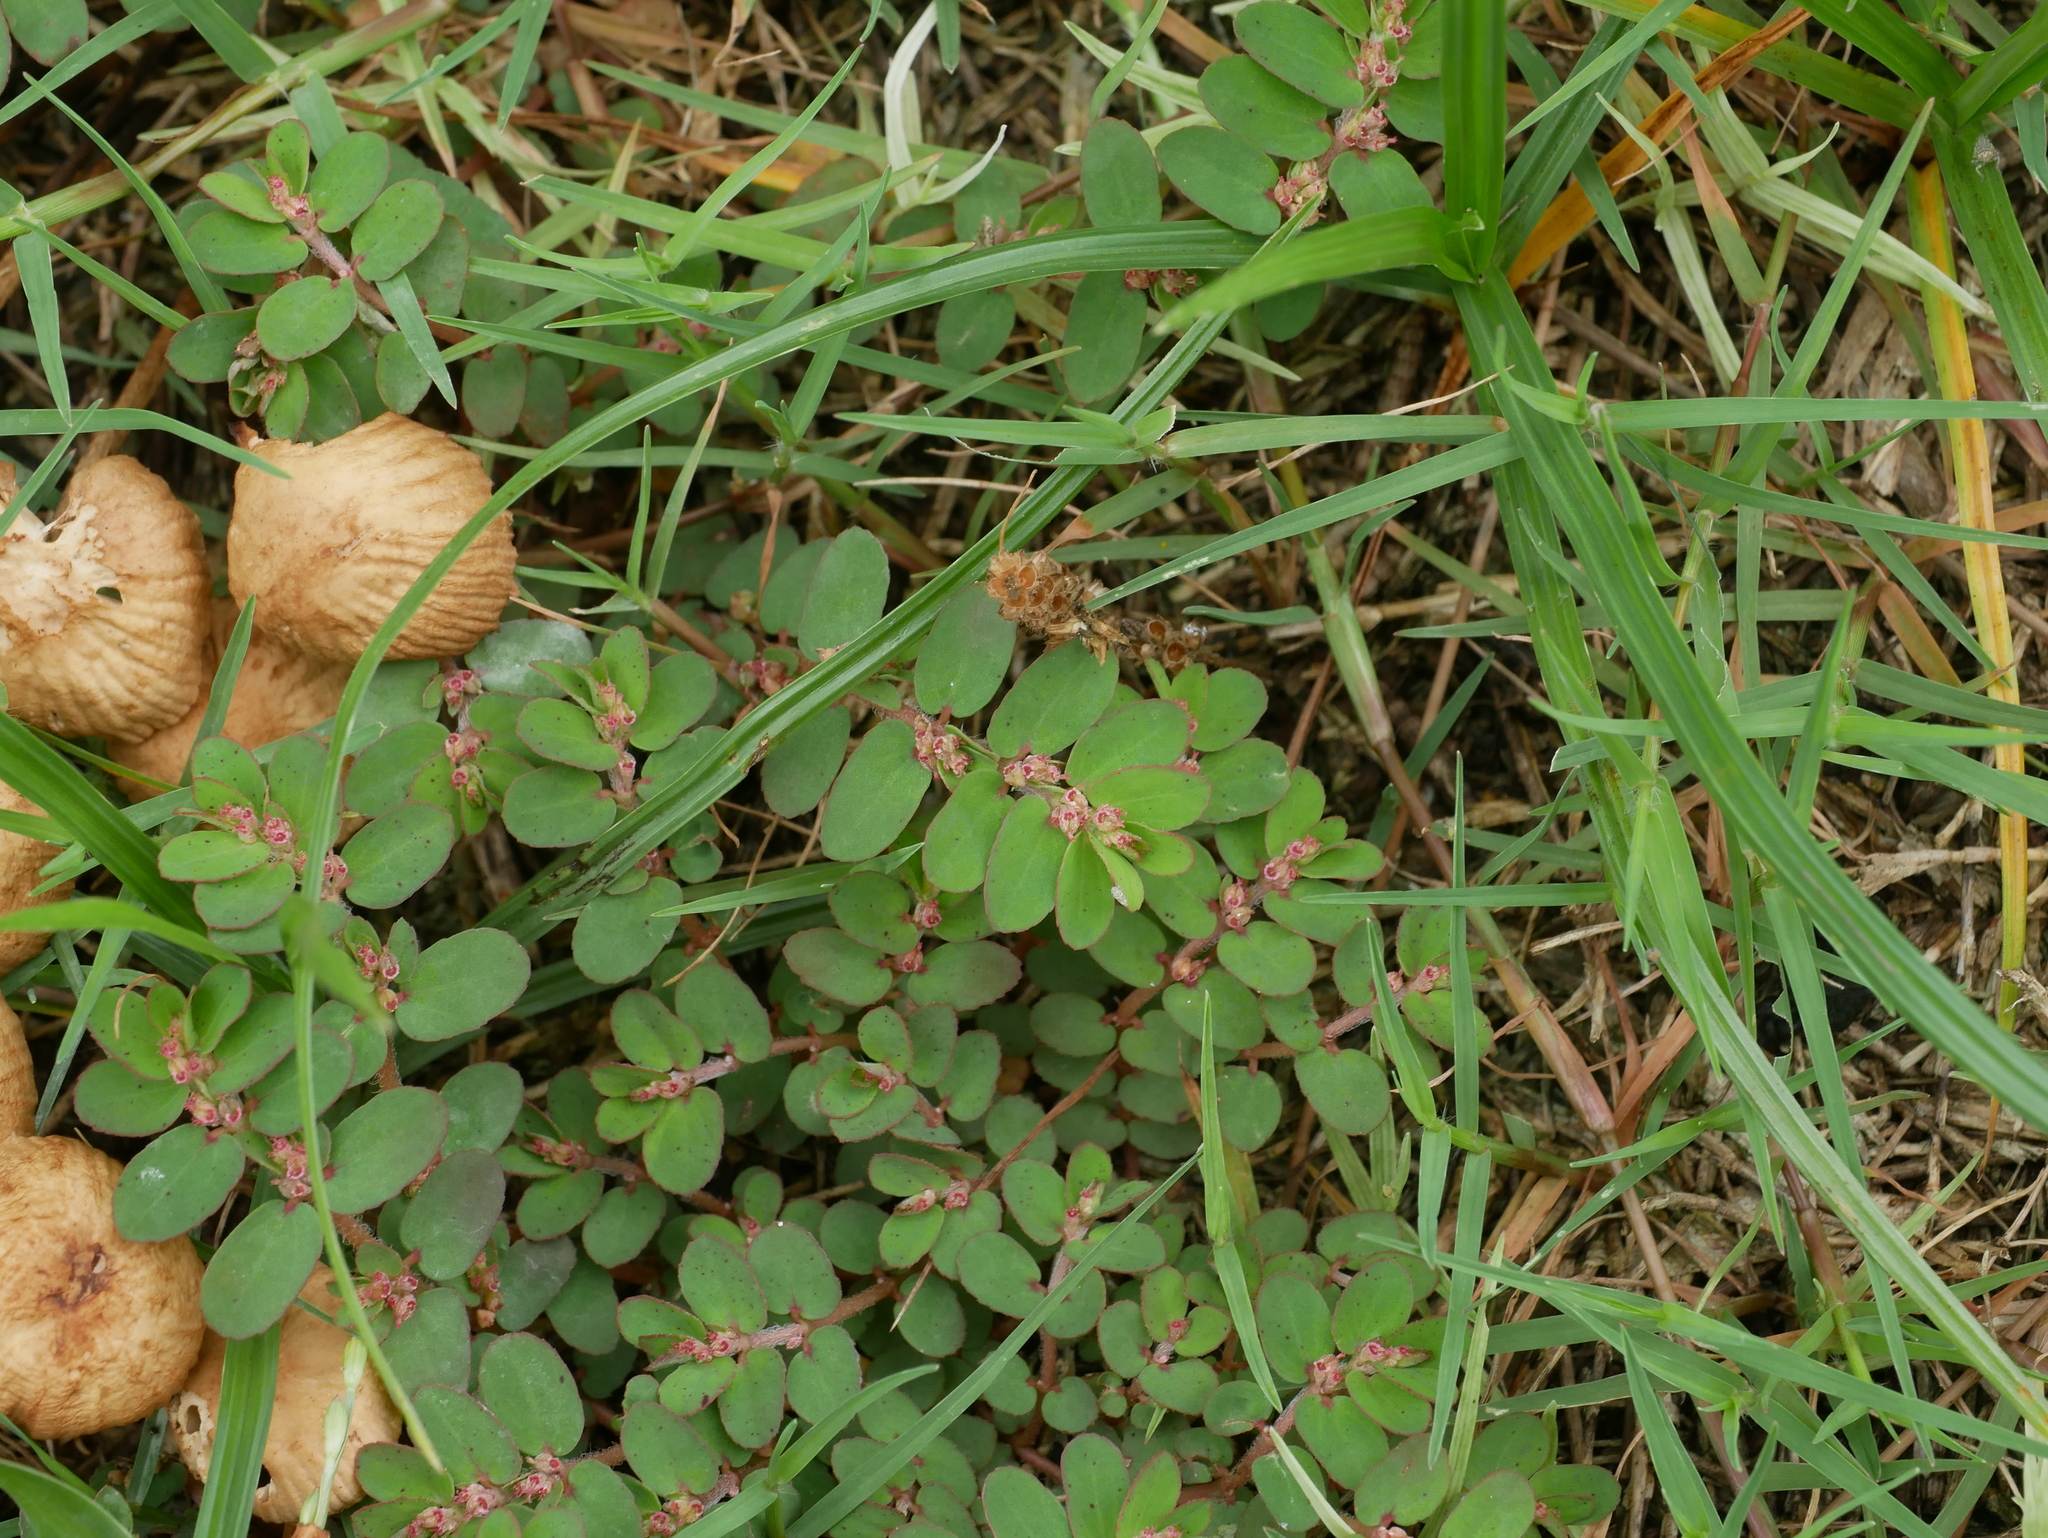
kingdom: Plantae
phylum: Tracheophyta
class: Magnoliopsida
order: Malpighiales
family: Euphorbiaceae
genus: Euphorbia
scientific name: Euphorbia thymifolia
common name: Gulf sandmat
